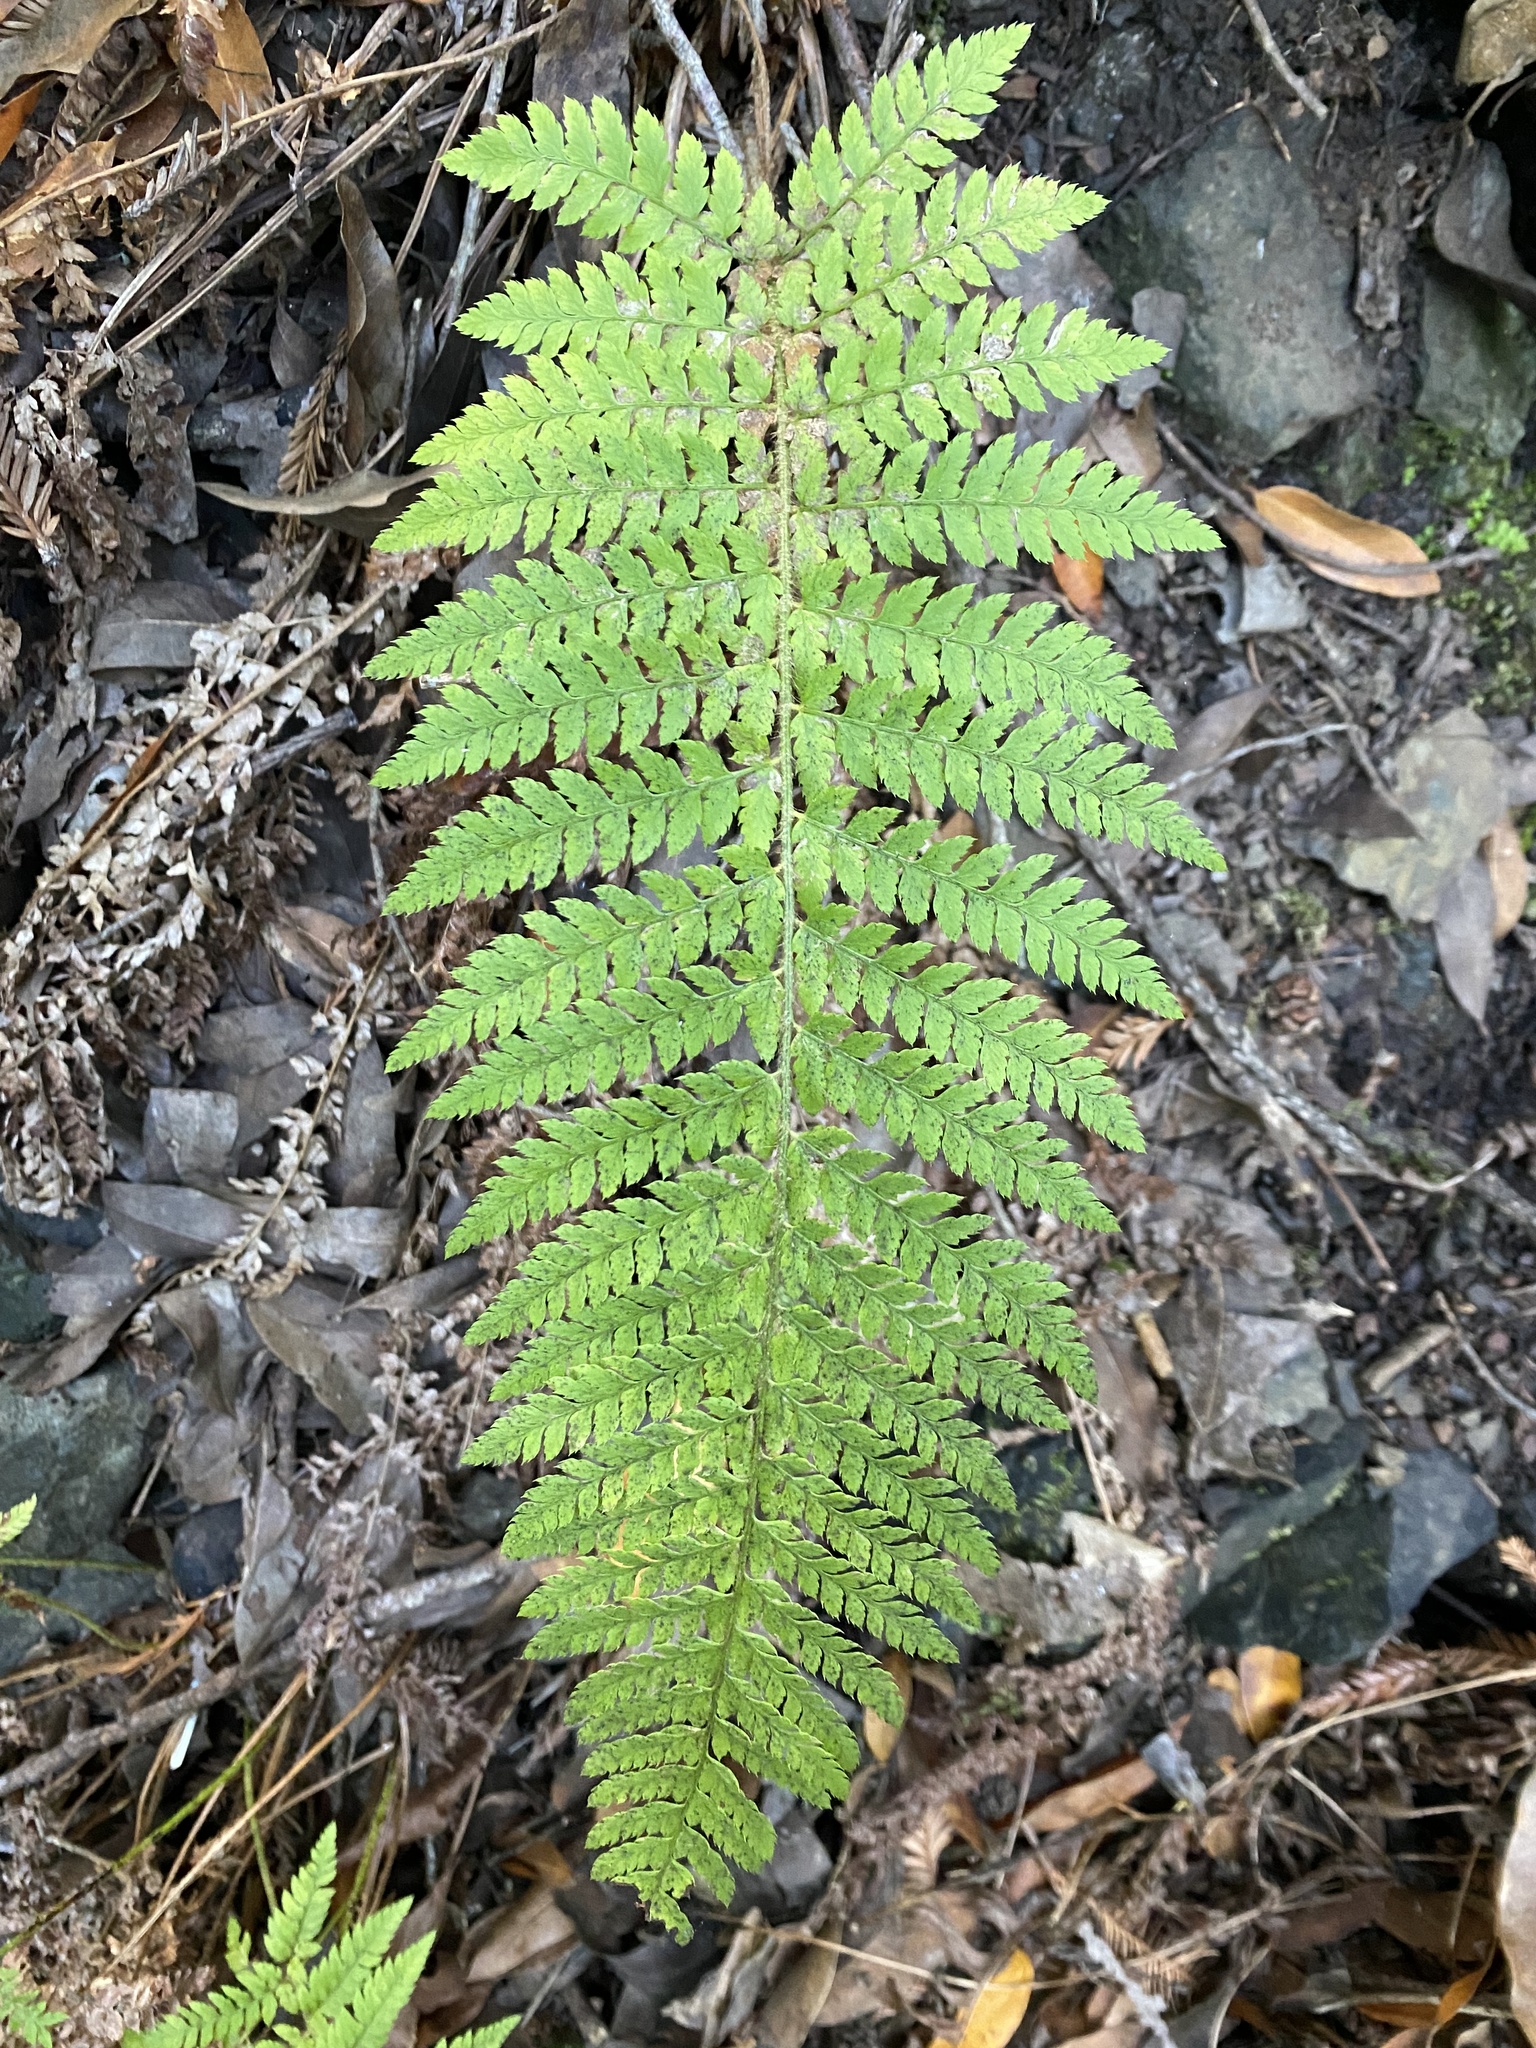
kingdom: Plantae
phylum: Tracheophyta
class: Polypodiopsida
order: Polypodiales
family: Dryopteridaceae
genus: Polystichum
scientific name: Polystichum dudleyi
